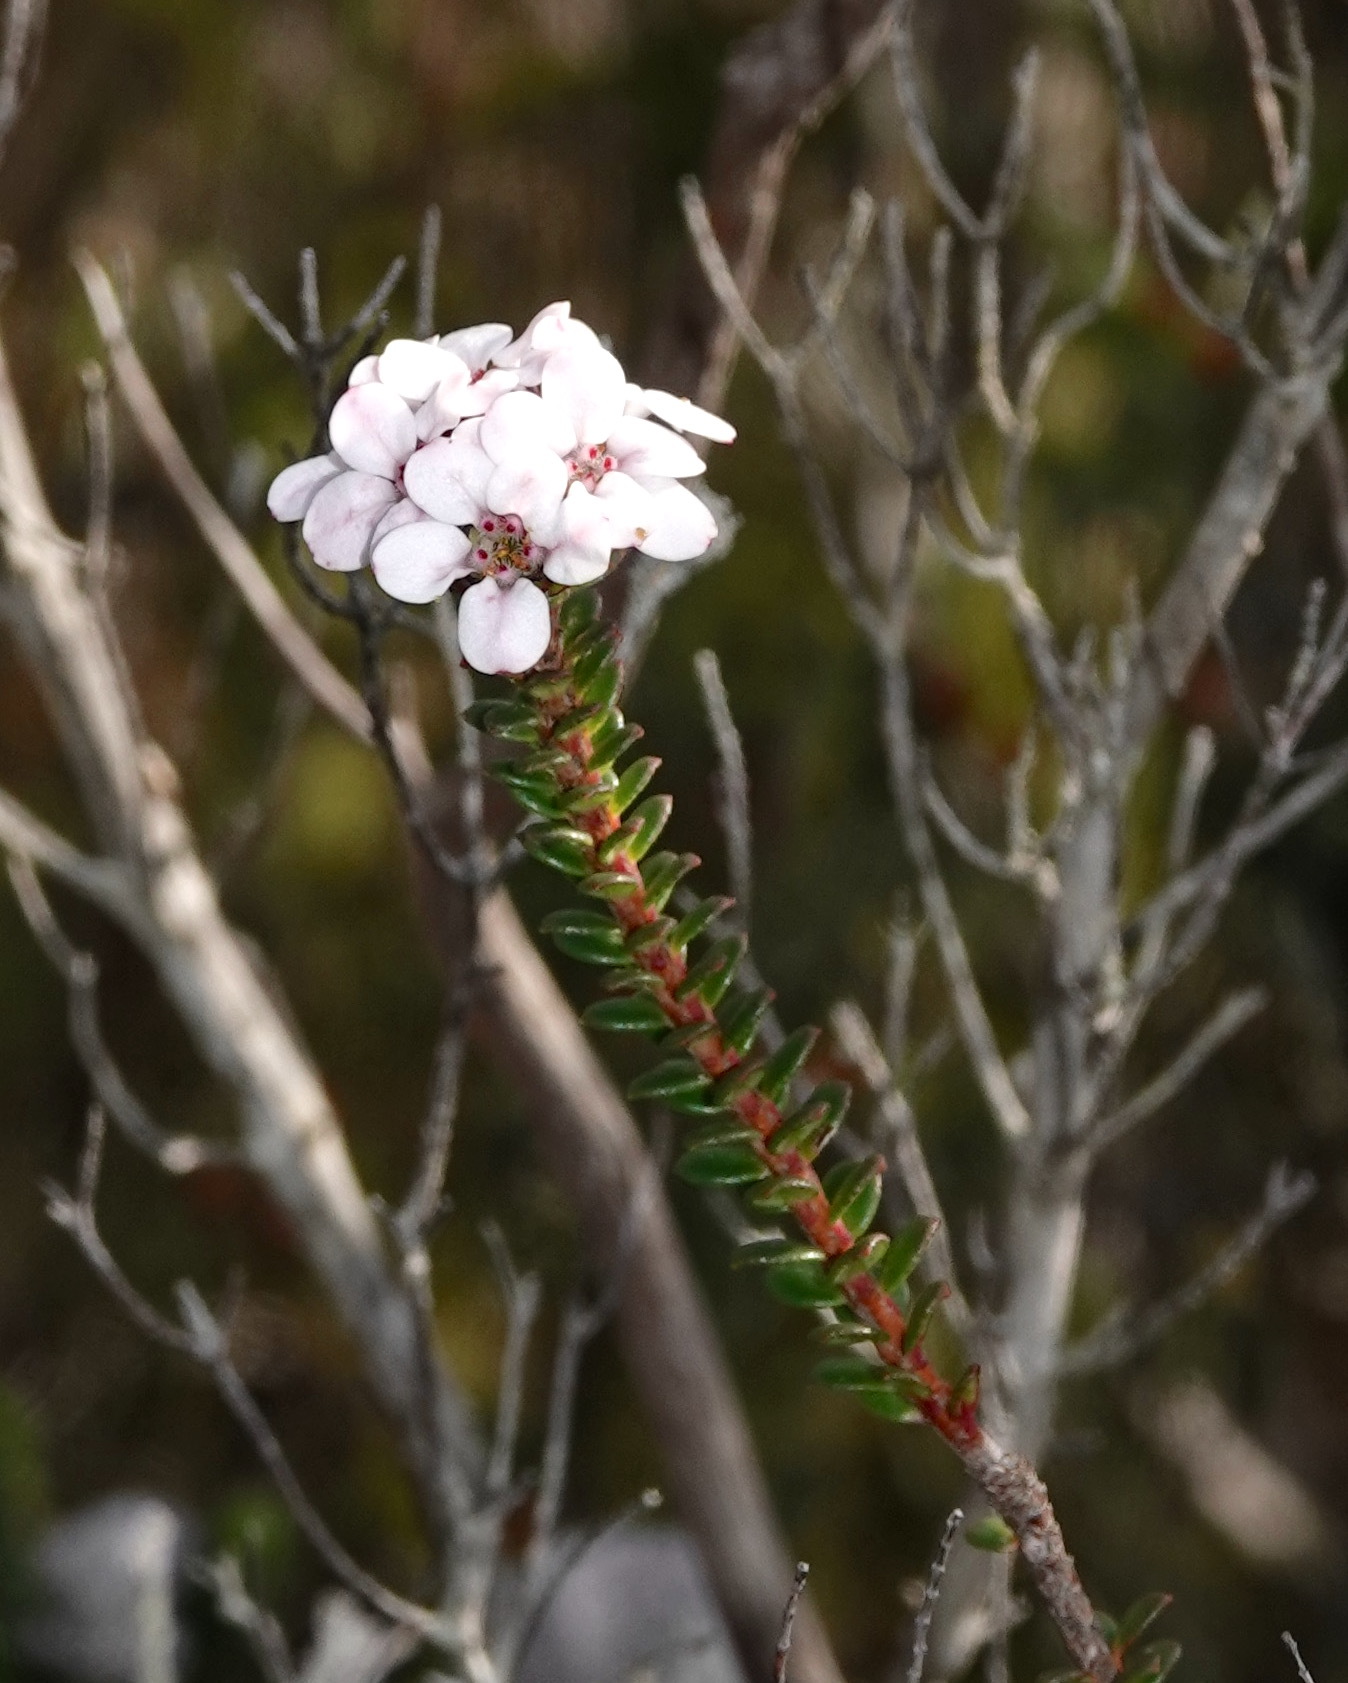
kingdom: Plantae
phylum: Tracheophyta
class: Magnoliopsida
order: Sapindales
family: Rutaceae
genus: Adenandra
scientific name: Adenandra rotundifolia
